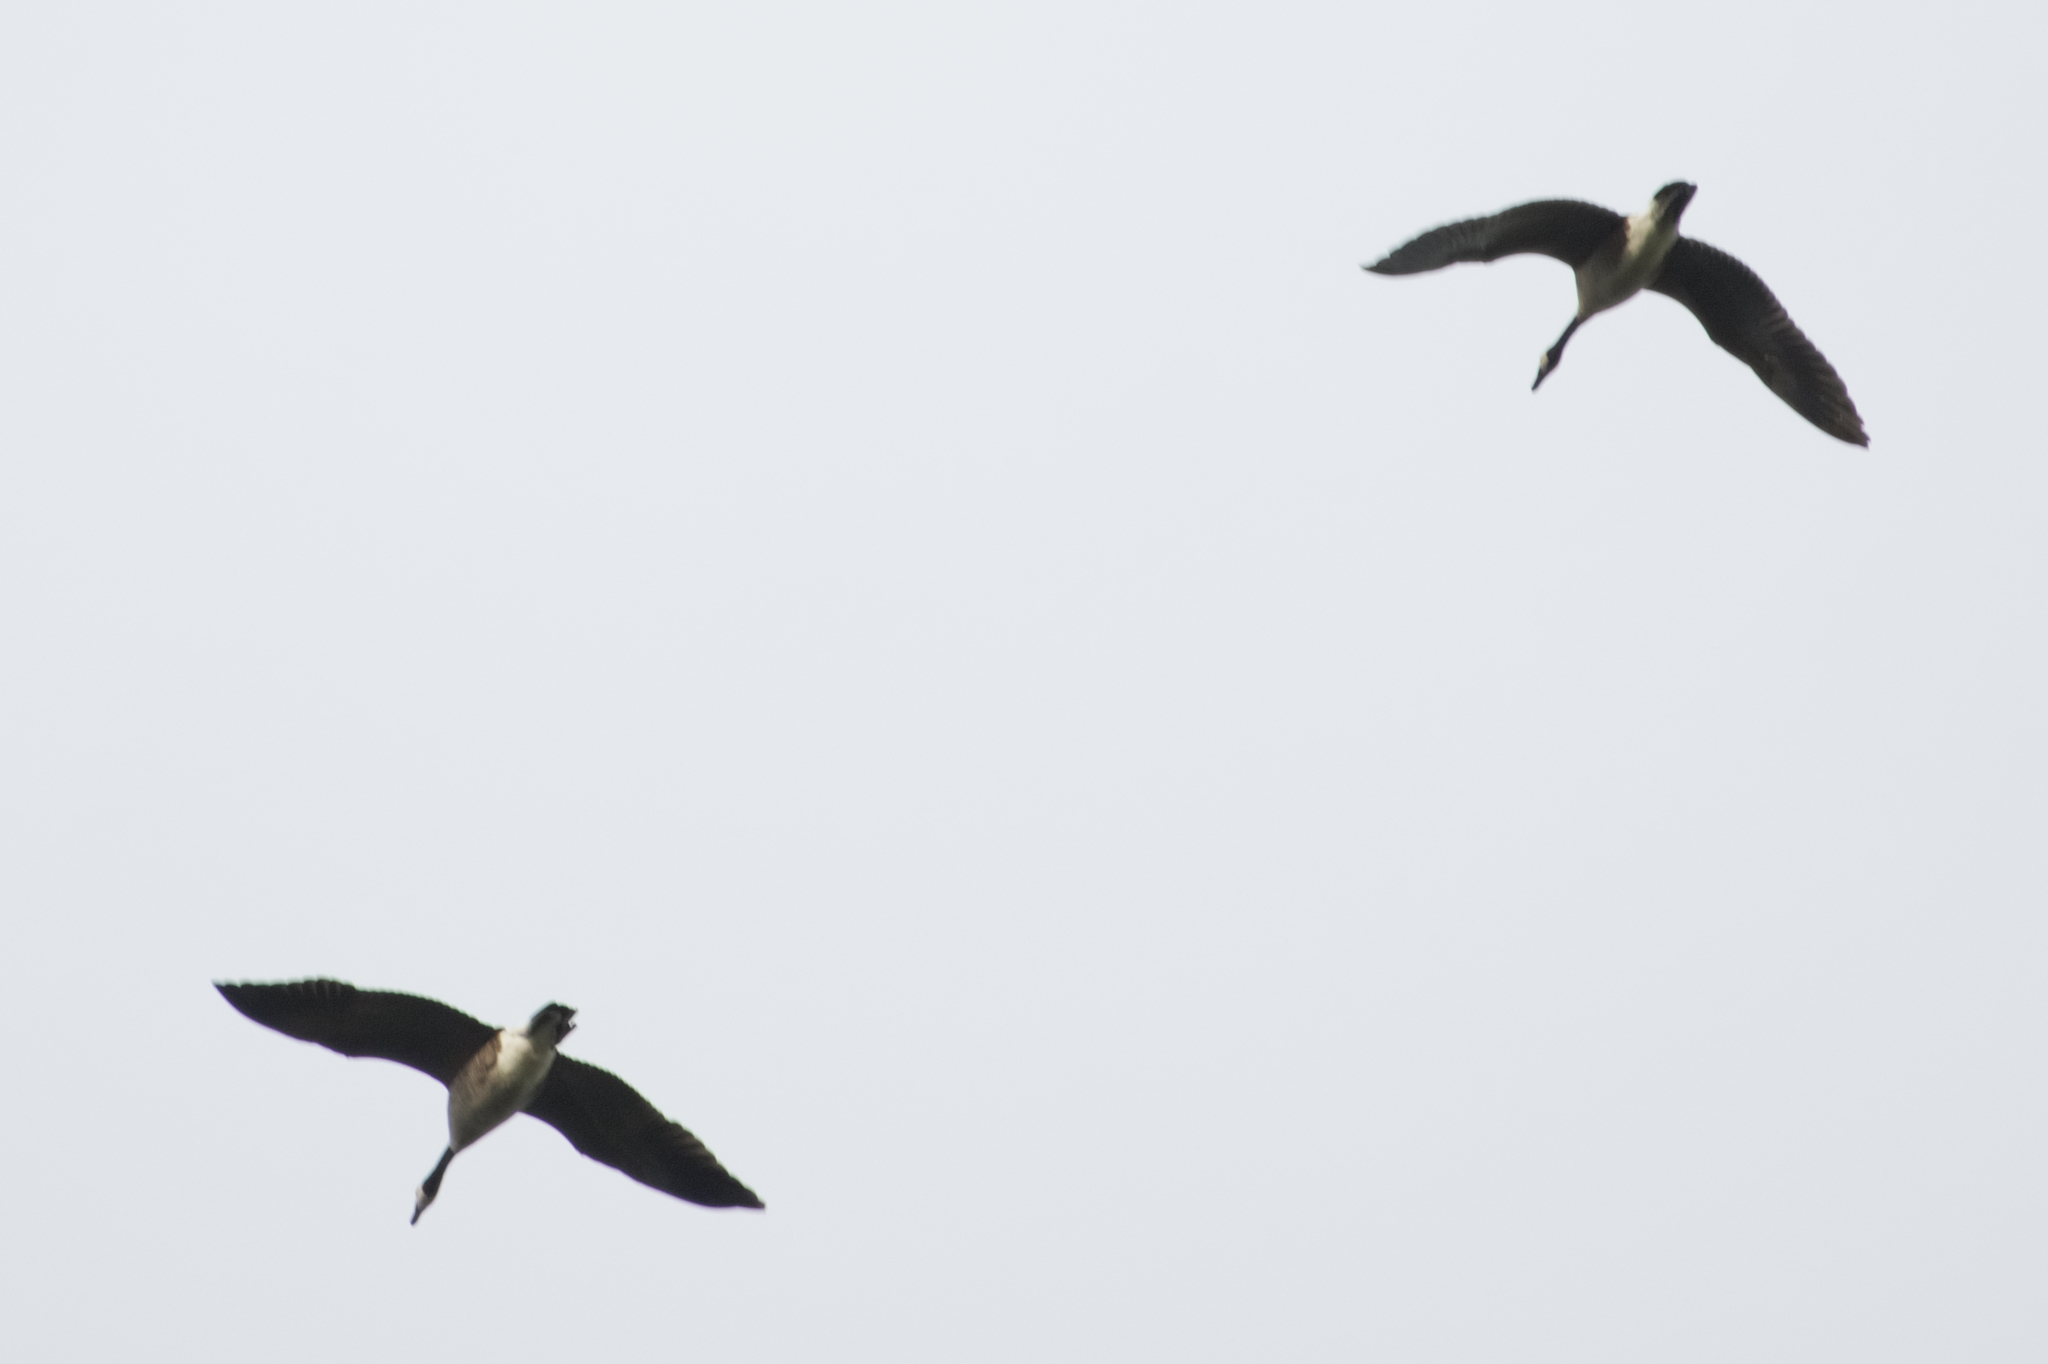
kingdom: Animalia
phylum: Chordata
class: Aves
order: Anseriformes
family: Anatidae
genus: Branta
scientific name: Branta canadensis
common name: Canada goose
